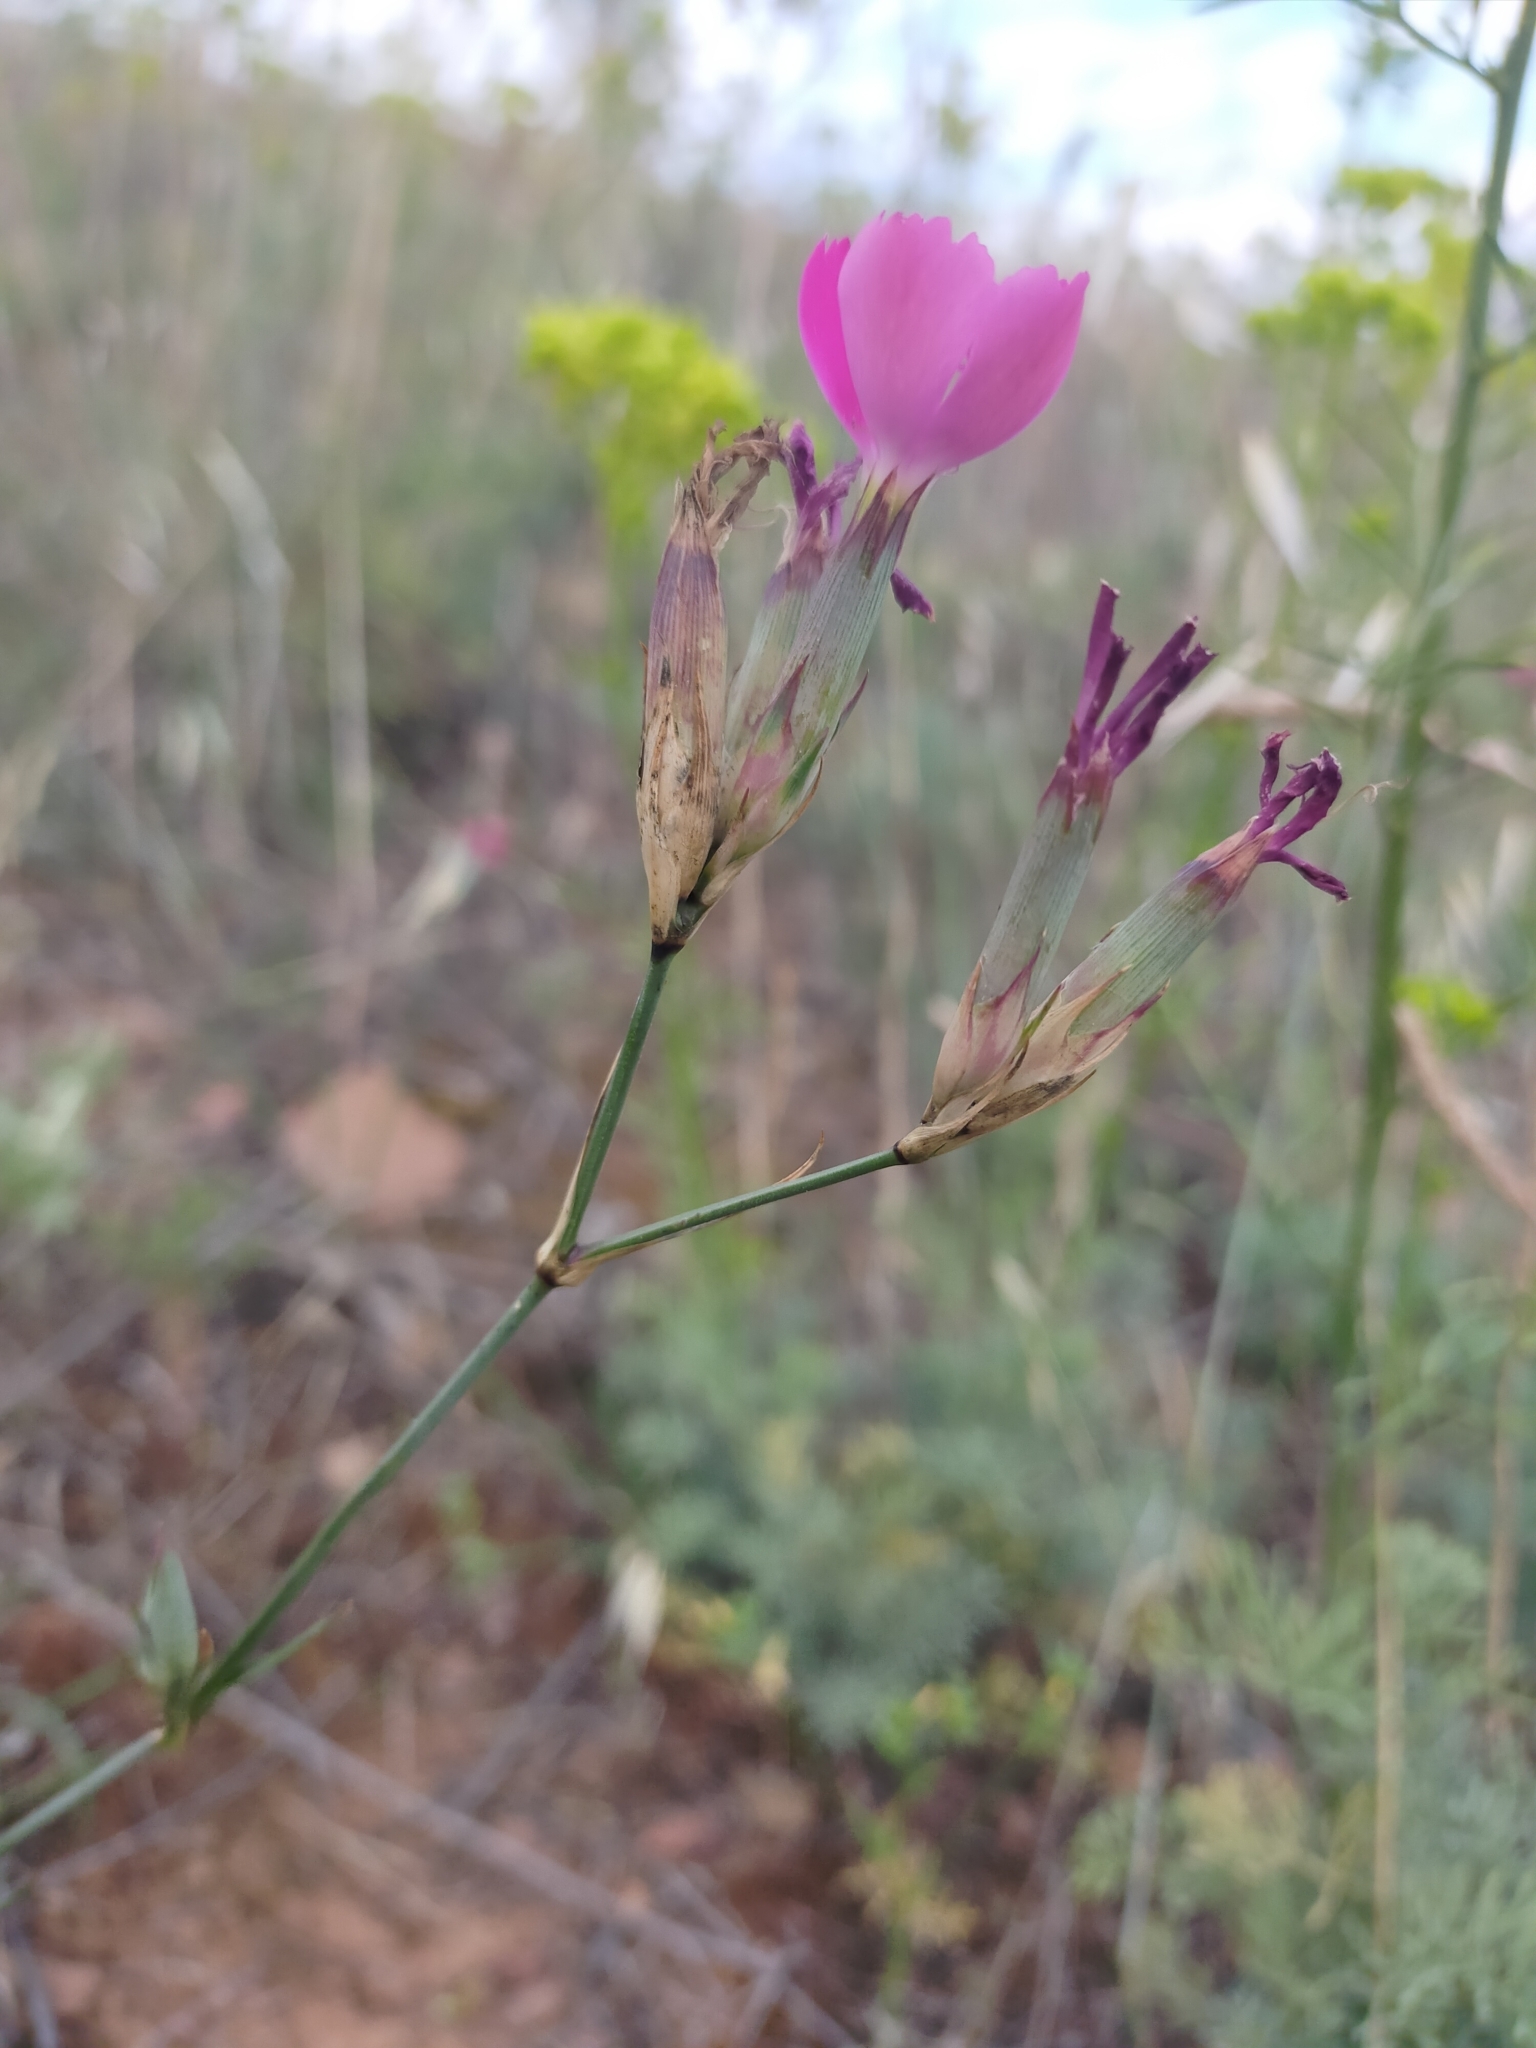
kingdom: Plantae
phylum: Tracheophyta
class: Magnoliopsida
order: Caryophyllales
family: Caryophyllaceae
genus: Dianthus
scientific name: Dianthus toletanus
